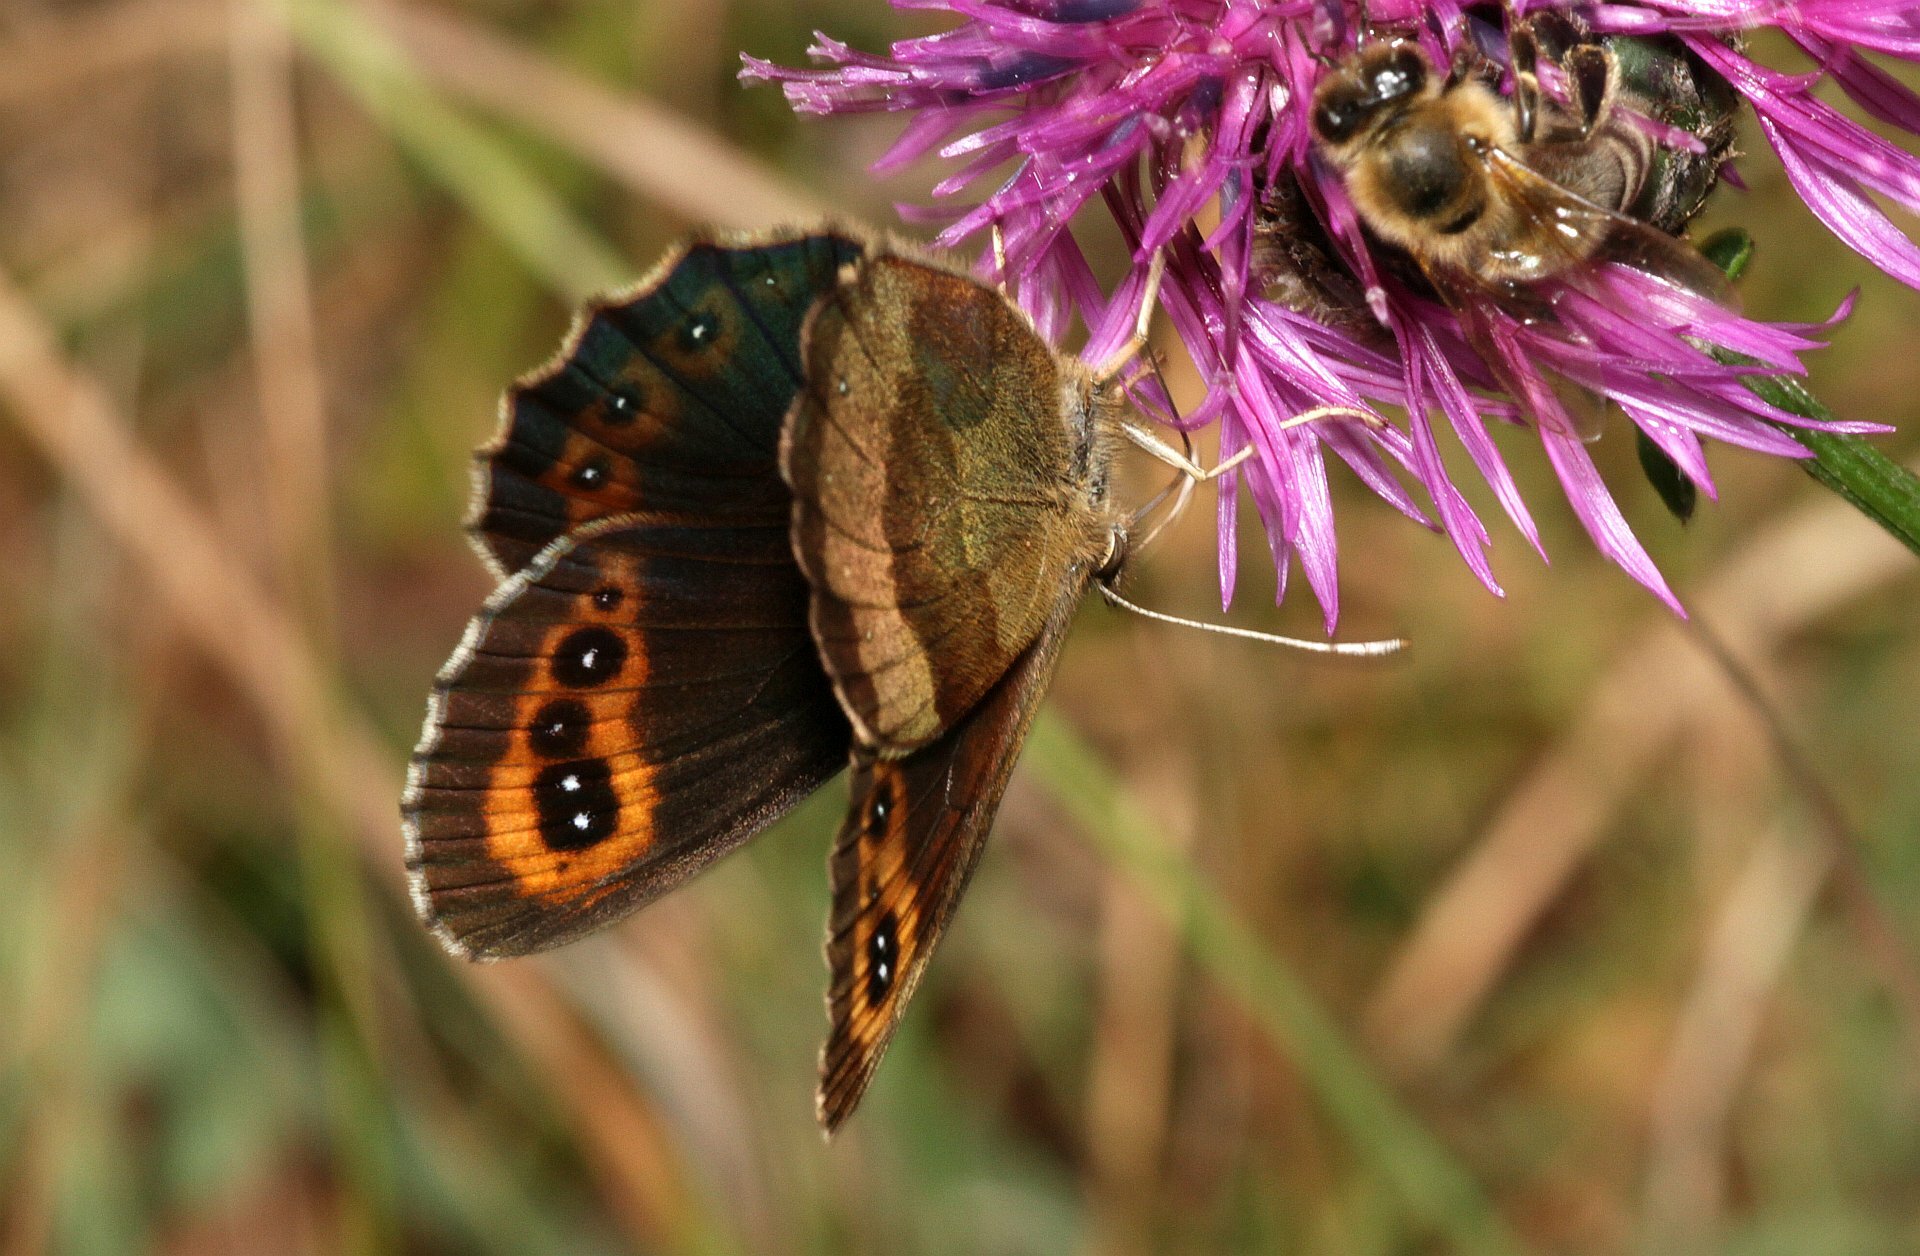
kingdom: Animalia
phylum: Arthropoda
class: Insecta
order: Lepidoptera
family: Nymphalidae
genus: Erebia
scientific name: Erebia aethiops
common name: Scotch argus
